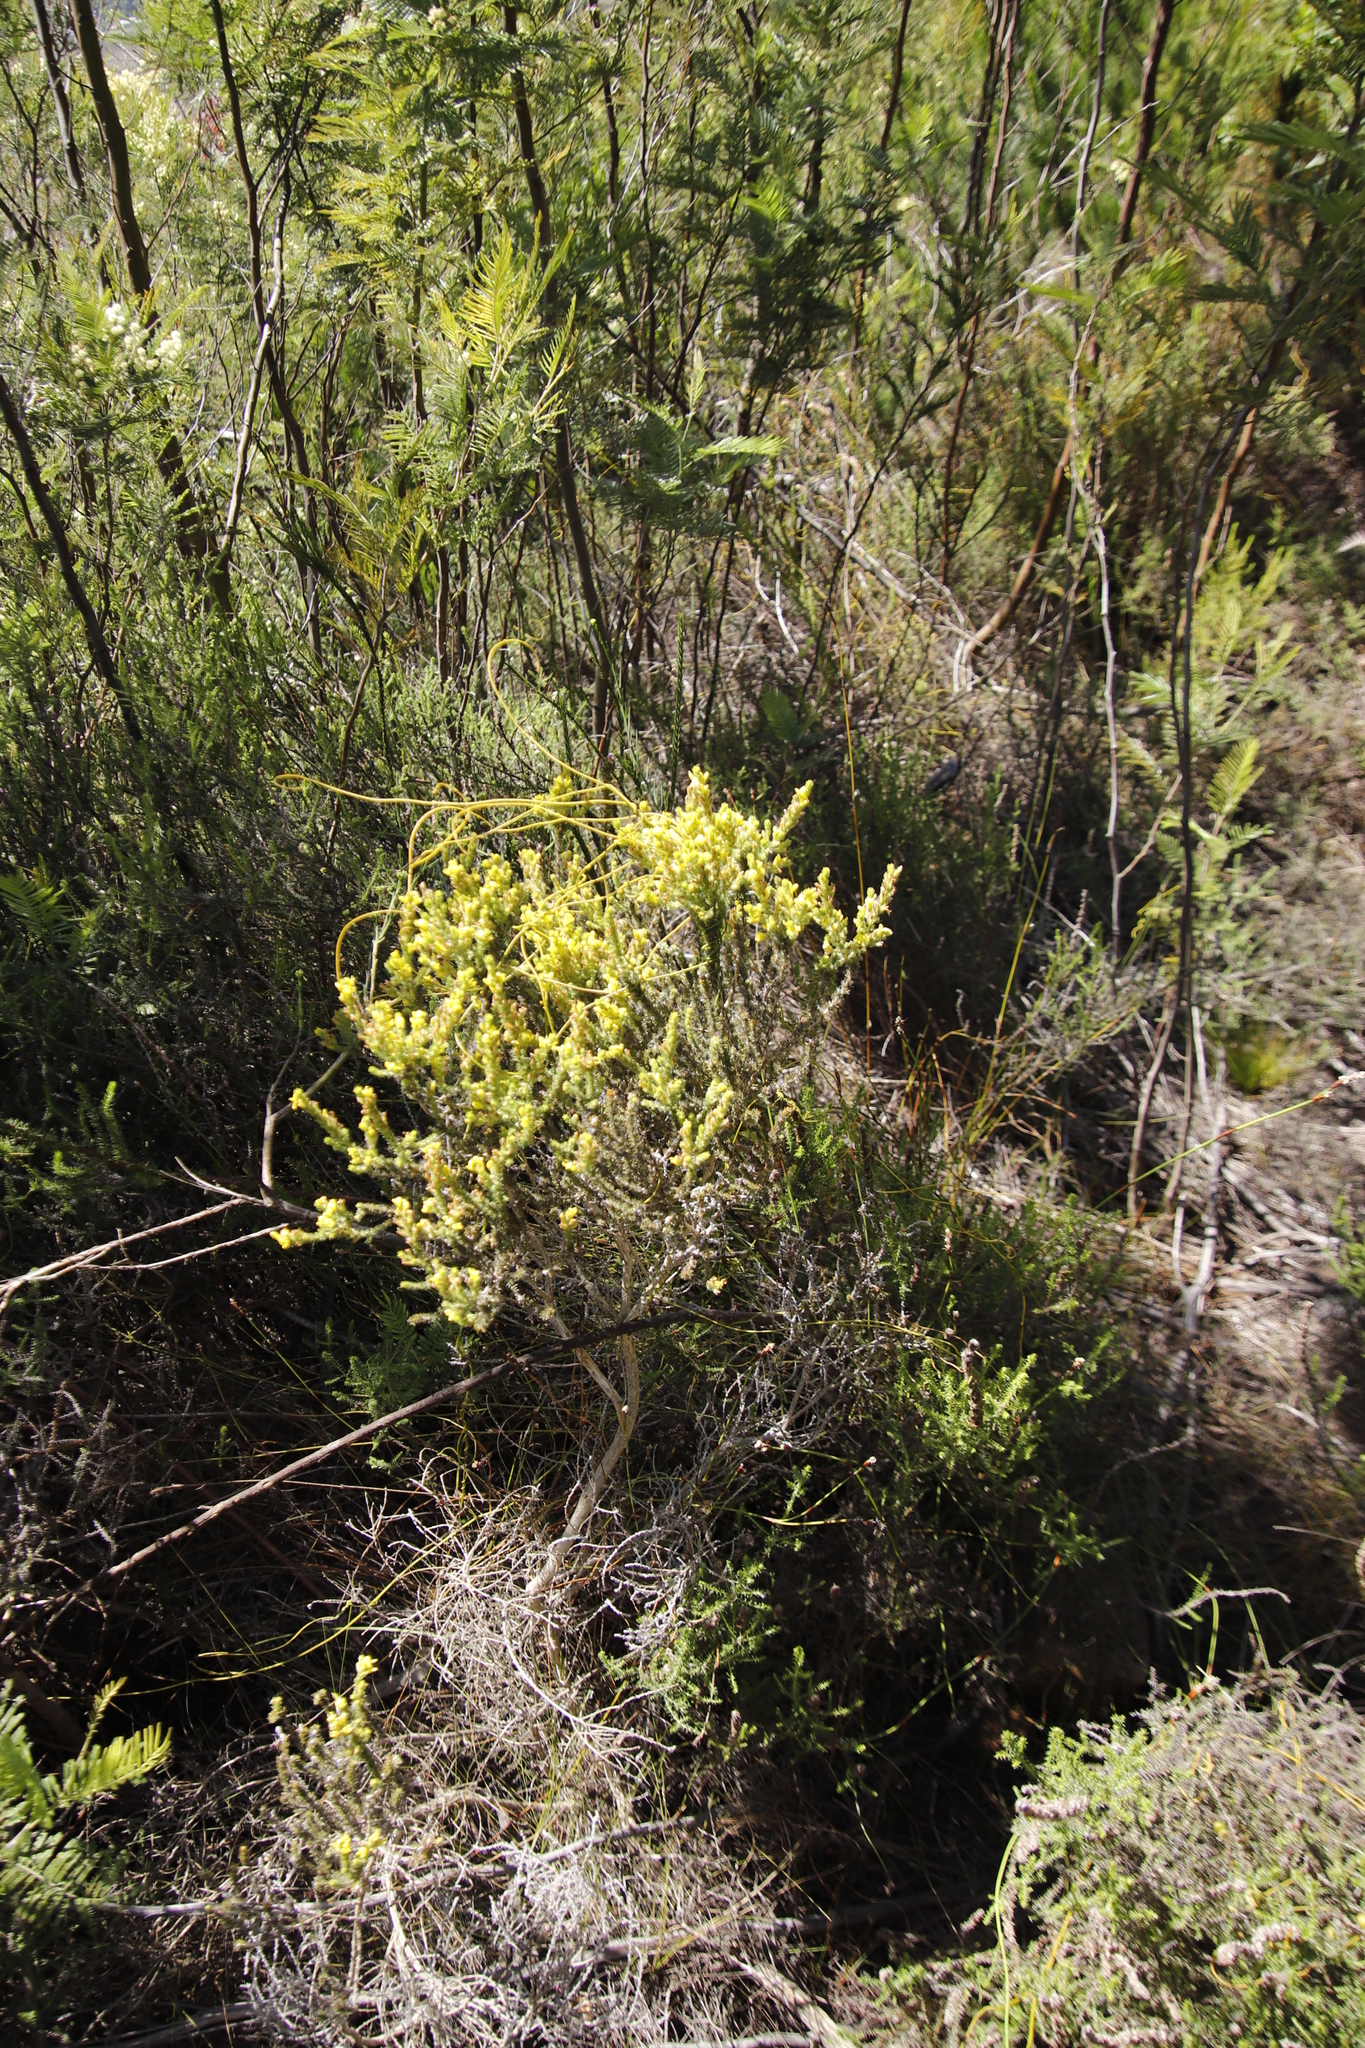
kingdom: Plantae
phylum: Tracheophyta
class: Magnoliopsida
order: Fabales
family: Fabaceae
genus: Aspalathus
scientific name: Aspalathus ericifolia
